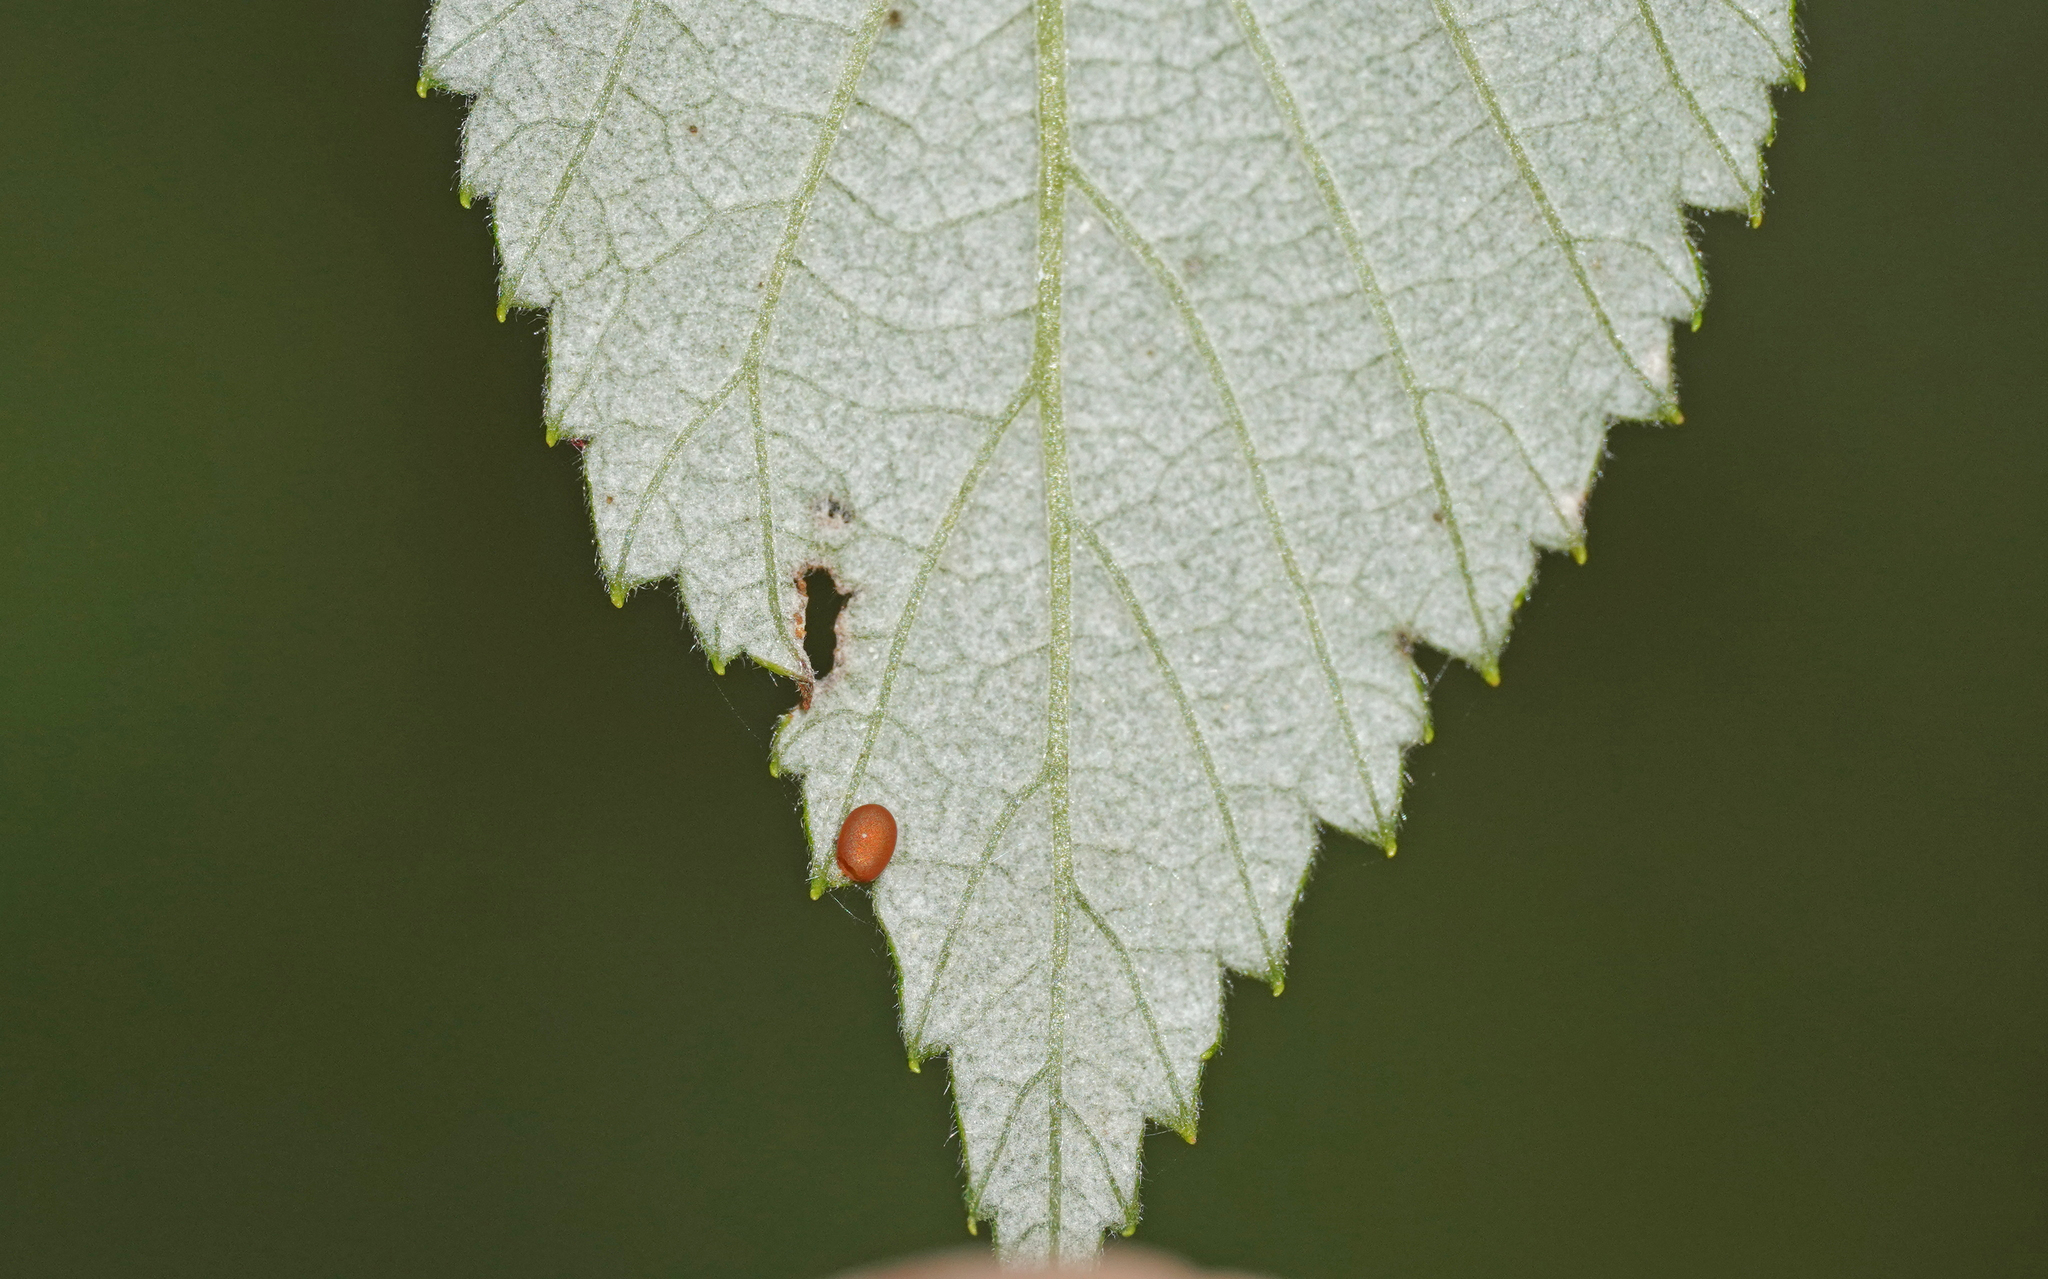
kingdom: Animalia
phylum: Arthropoda
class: Insecta
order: Lepidoptera
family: Sesiidae
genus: Pennisetia
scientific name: Pennisetia hylaeiformis
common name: Raspberry clearwing
